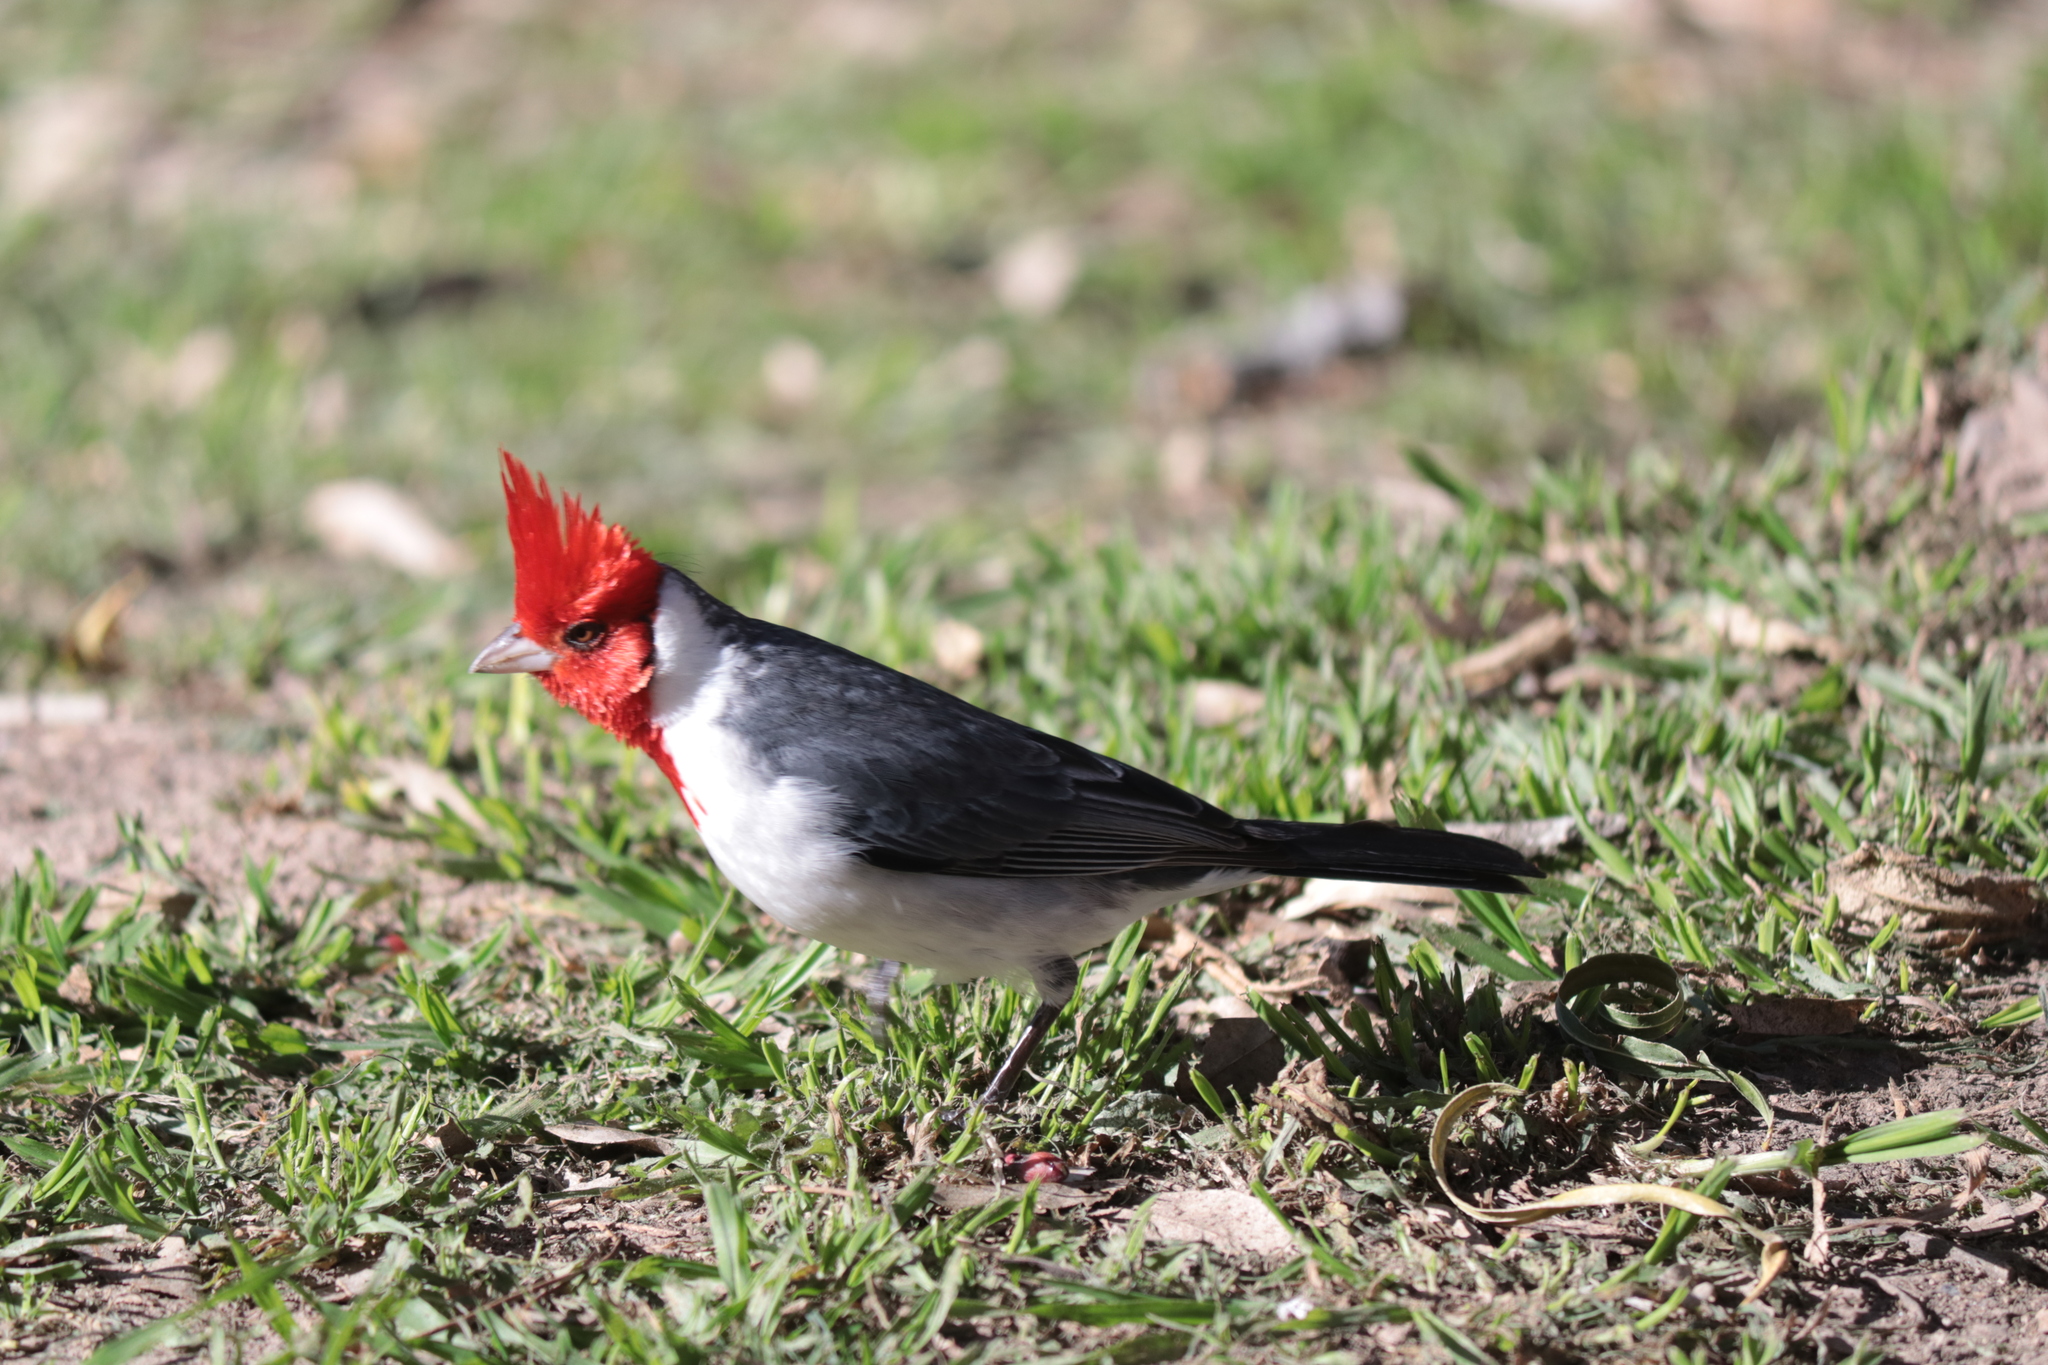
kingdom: Animalia
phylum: Chordata
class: Aves
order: Passeriformes
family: Thraupidae
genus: Paroaria
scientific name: Paroaria coronata
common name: Red-crested cardinal
